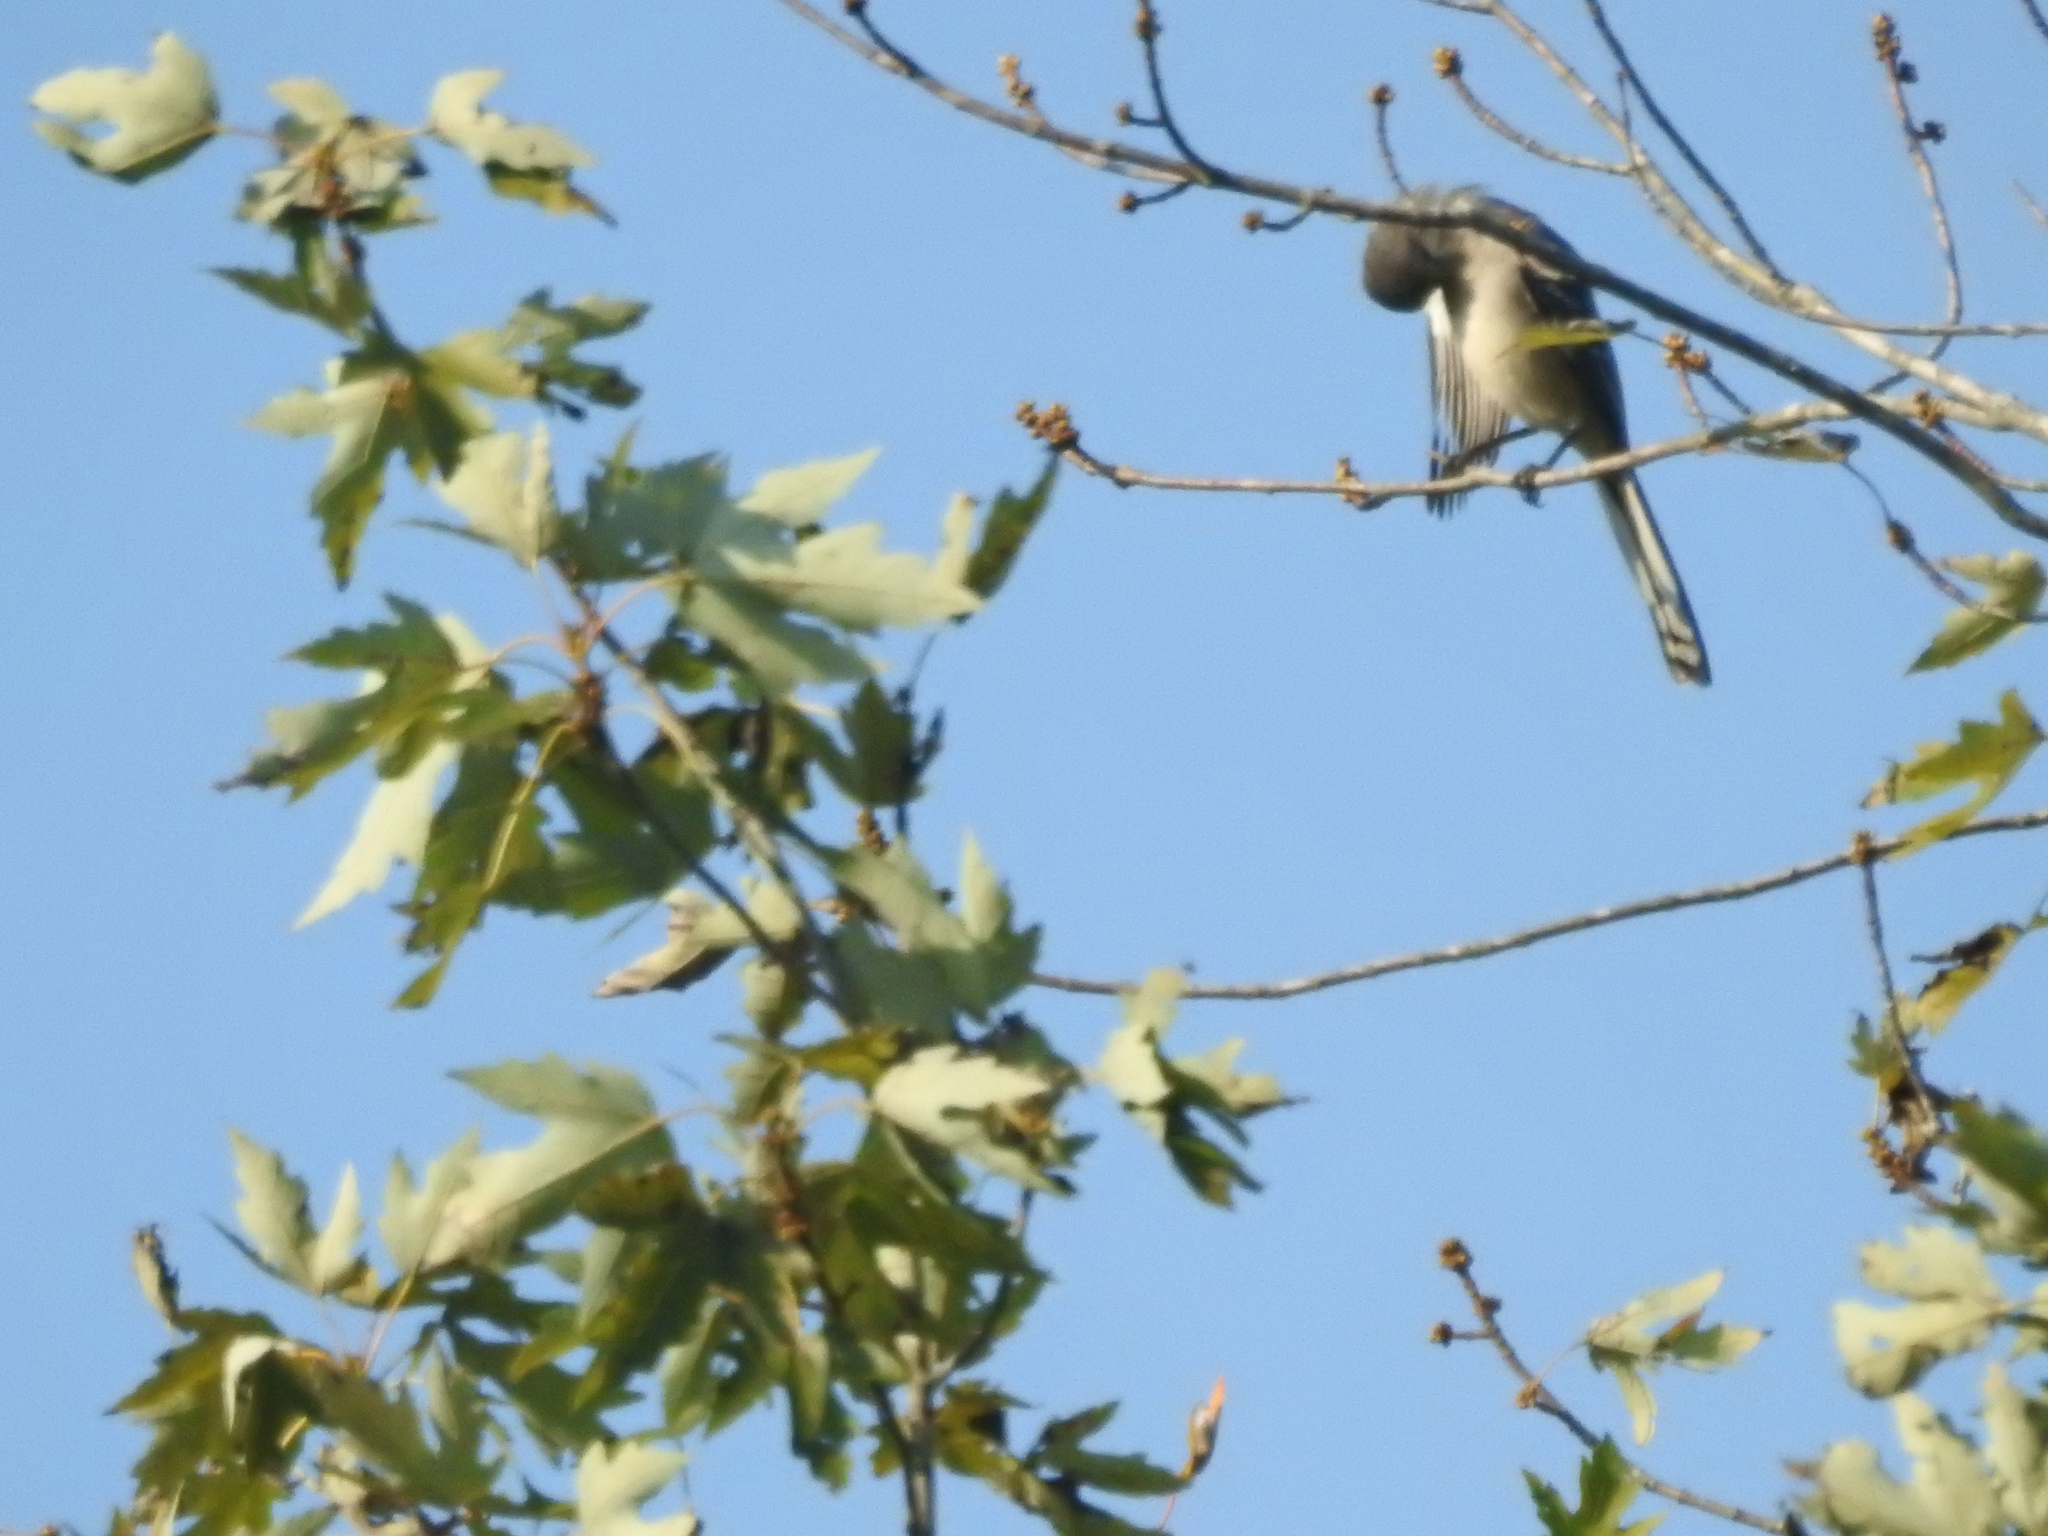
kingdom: Animalia
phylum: Chordata
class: Aves
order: Passeriformes
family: Mimidae
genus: Mimus
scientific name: Mimus polyglottos
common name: Northern mockingbird
